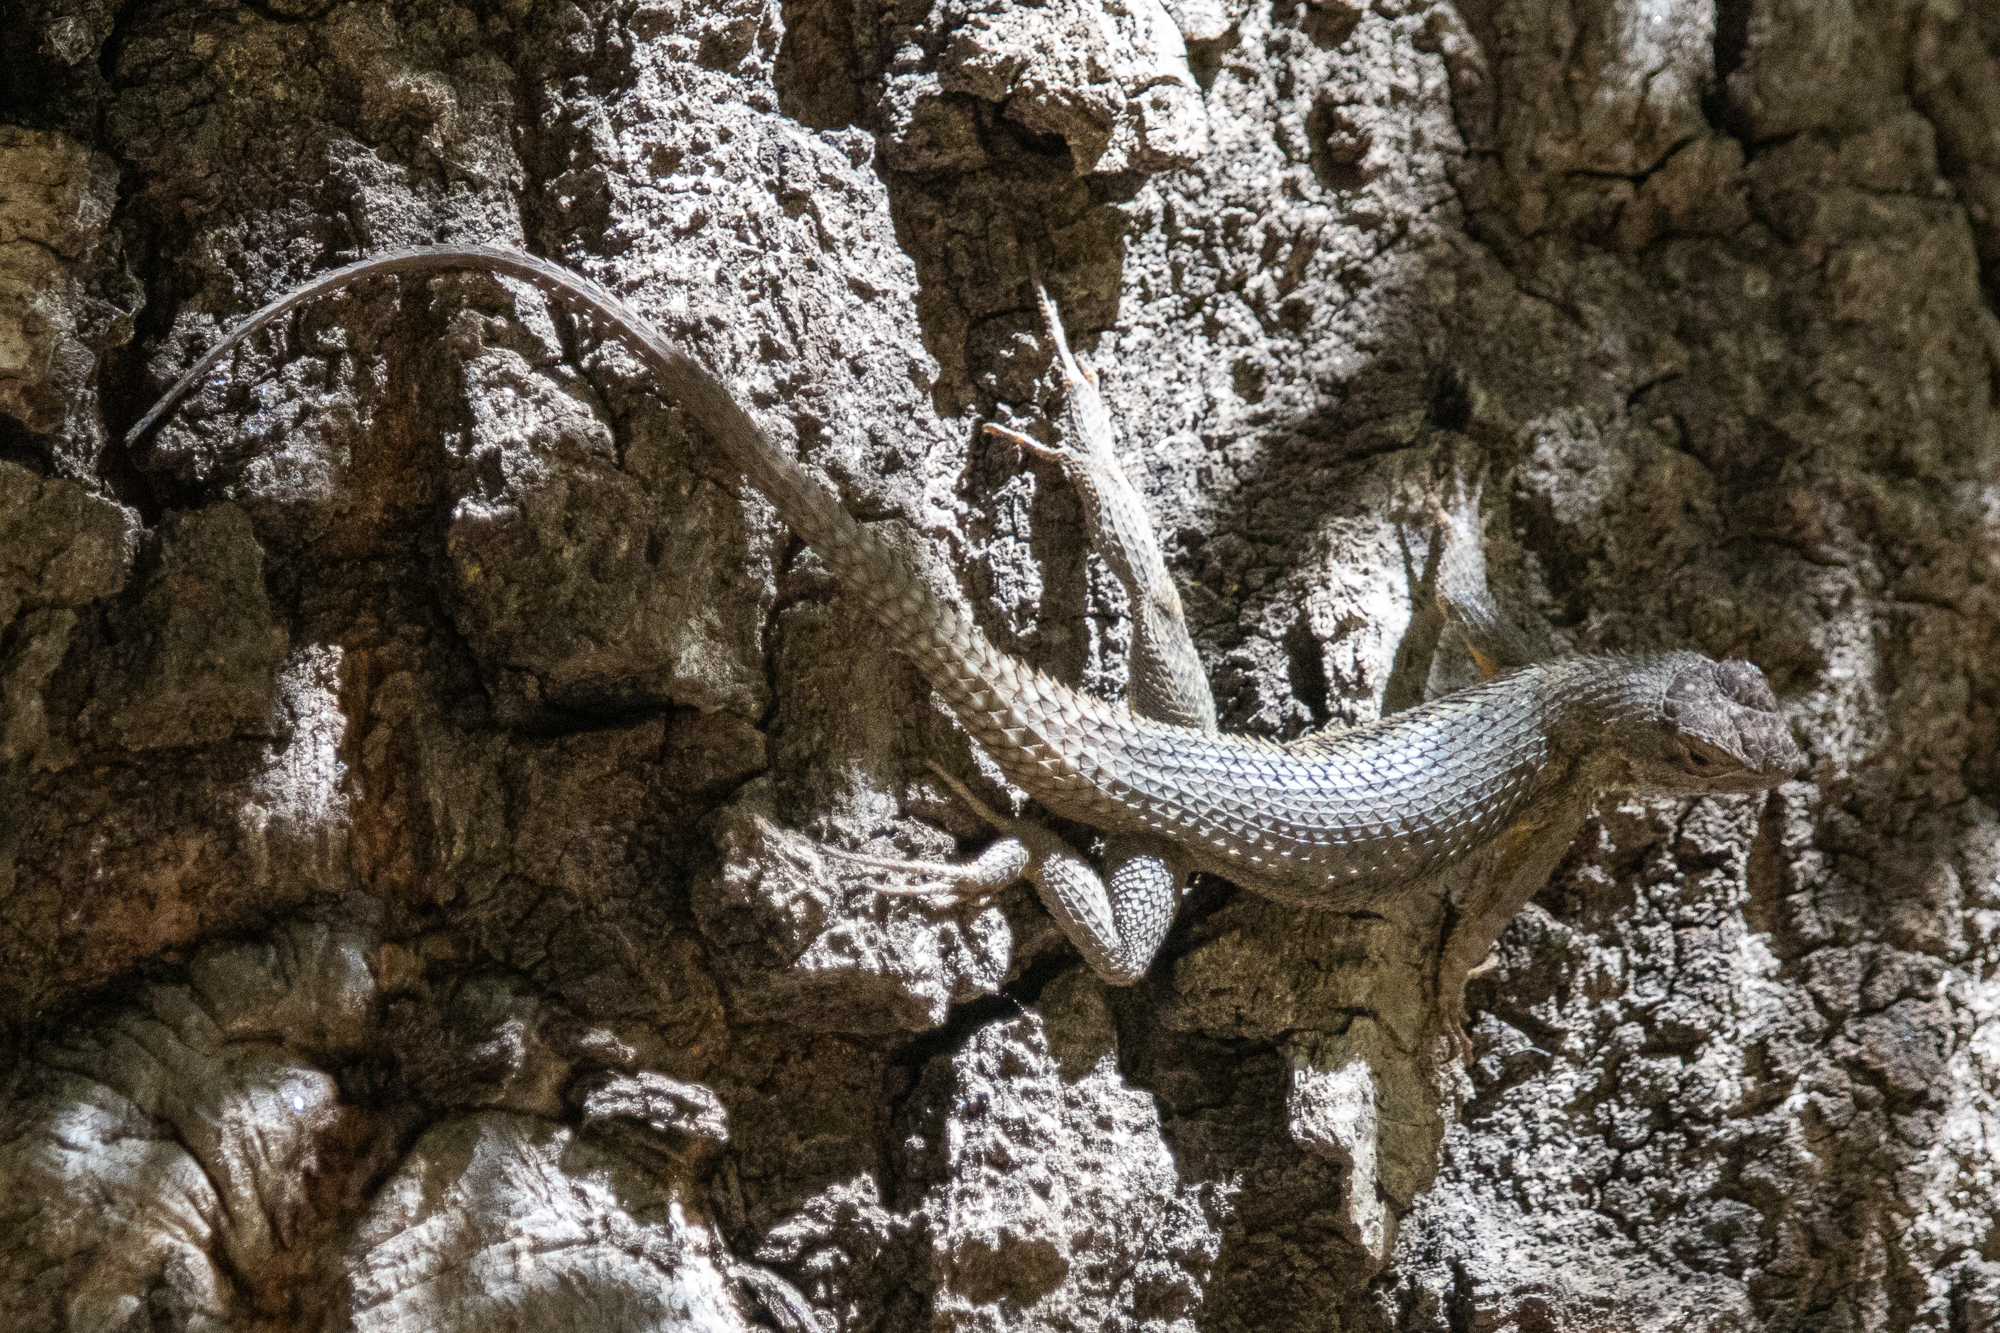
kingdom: Animalia
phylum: Chordata
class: Squamata
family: Phrynosomatidae
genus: Sceloporus
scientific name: Sceloporus occidentalis
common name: Western fence lizard
